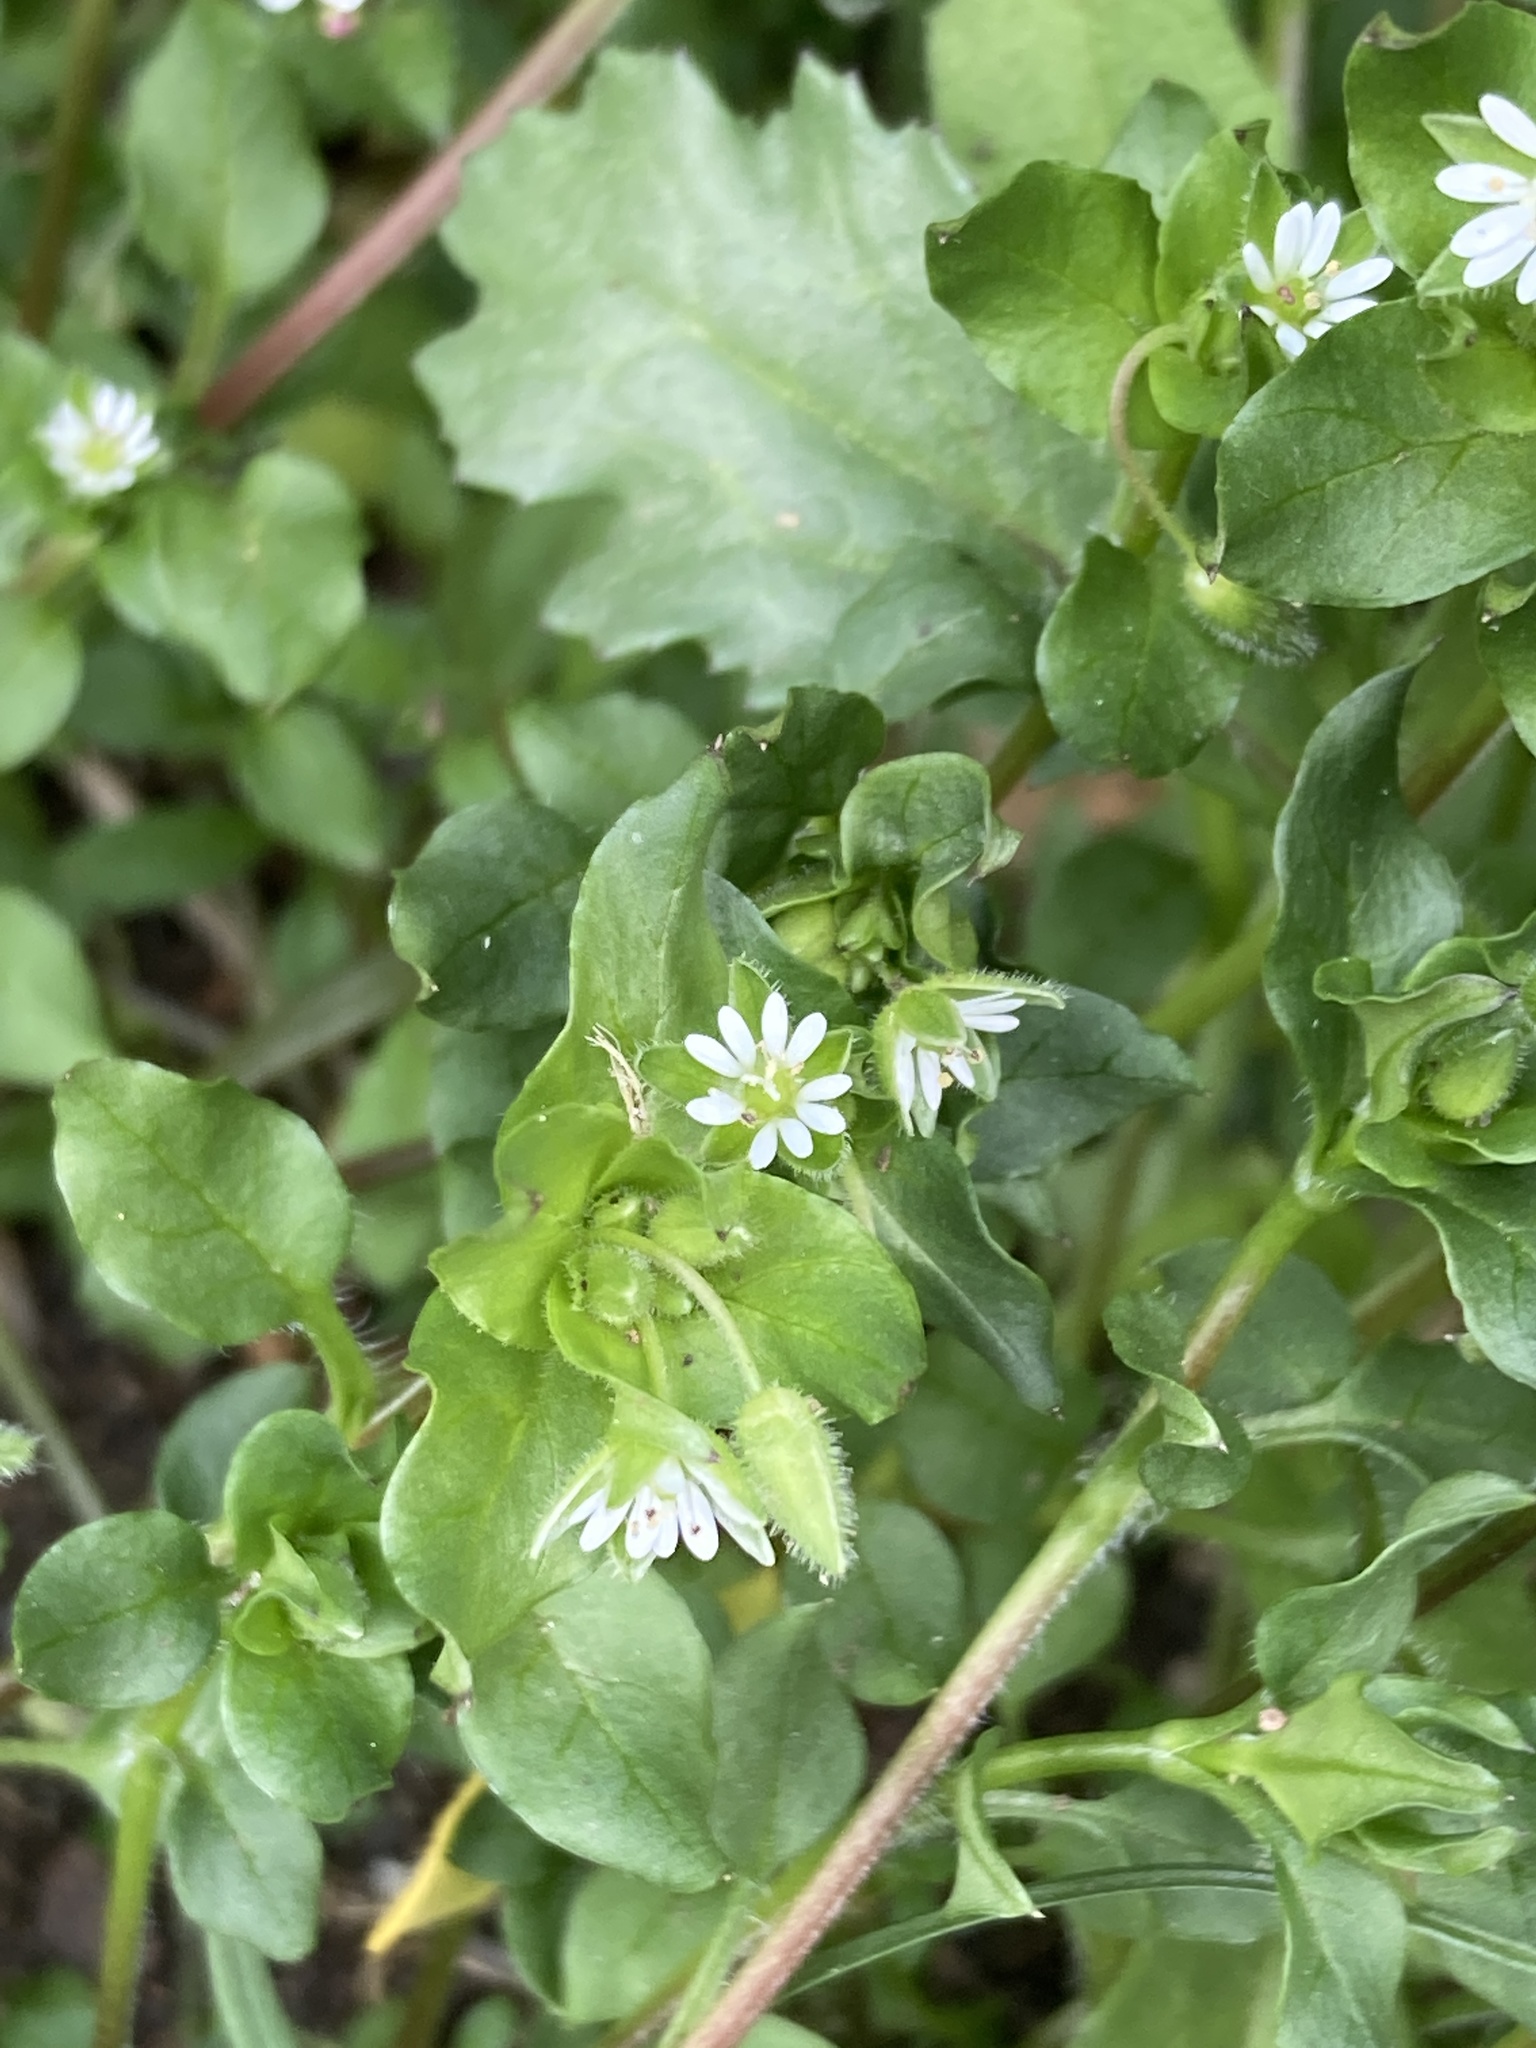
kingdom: Plantae
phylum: Tracheophyta
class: Magnoliopsida
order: Caryophyllales
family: Caryophyllaceae
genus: Stellaria
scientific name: Stellaria media
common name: Common chickweed
